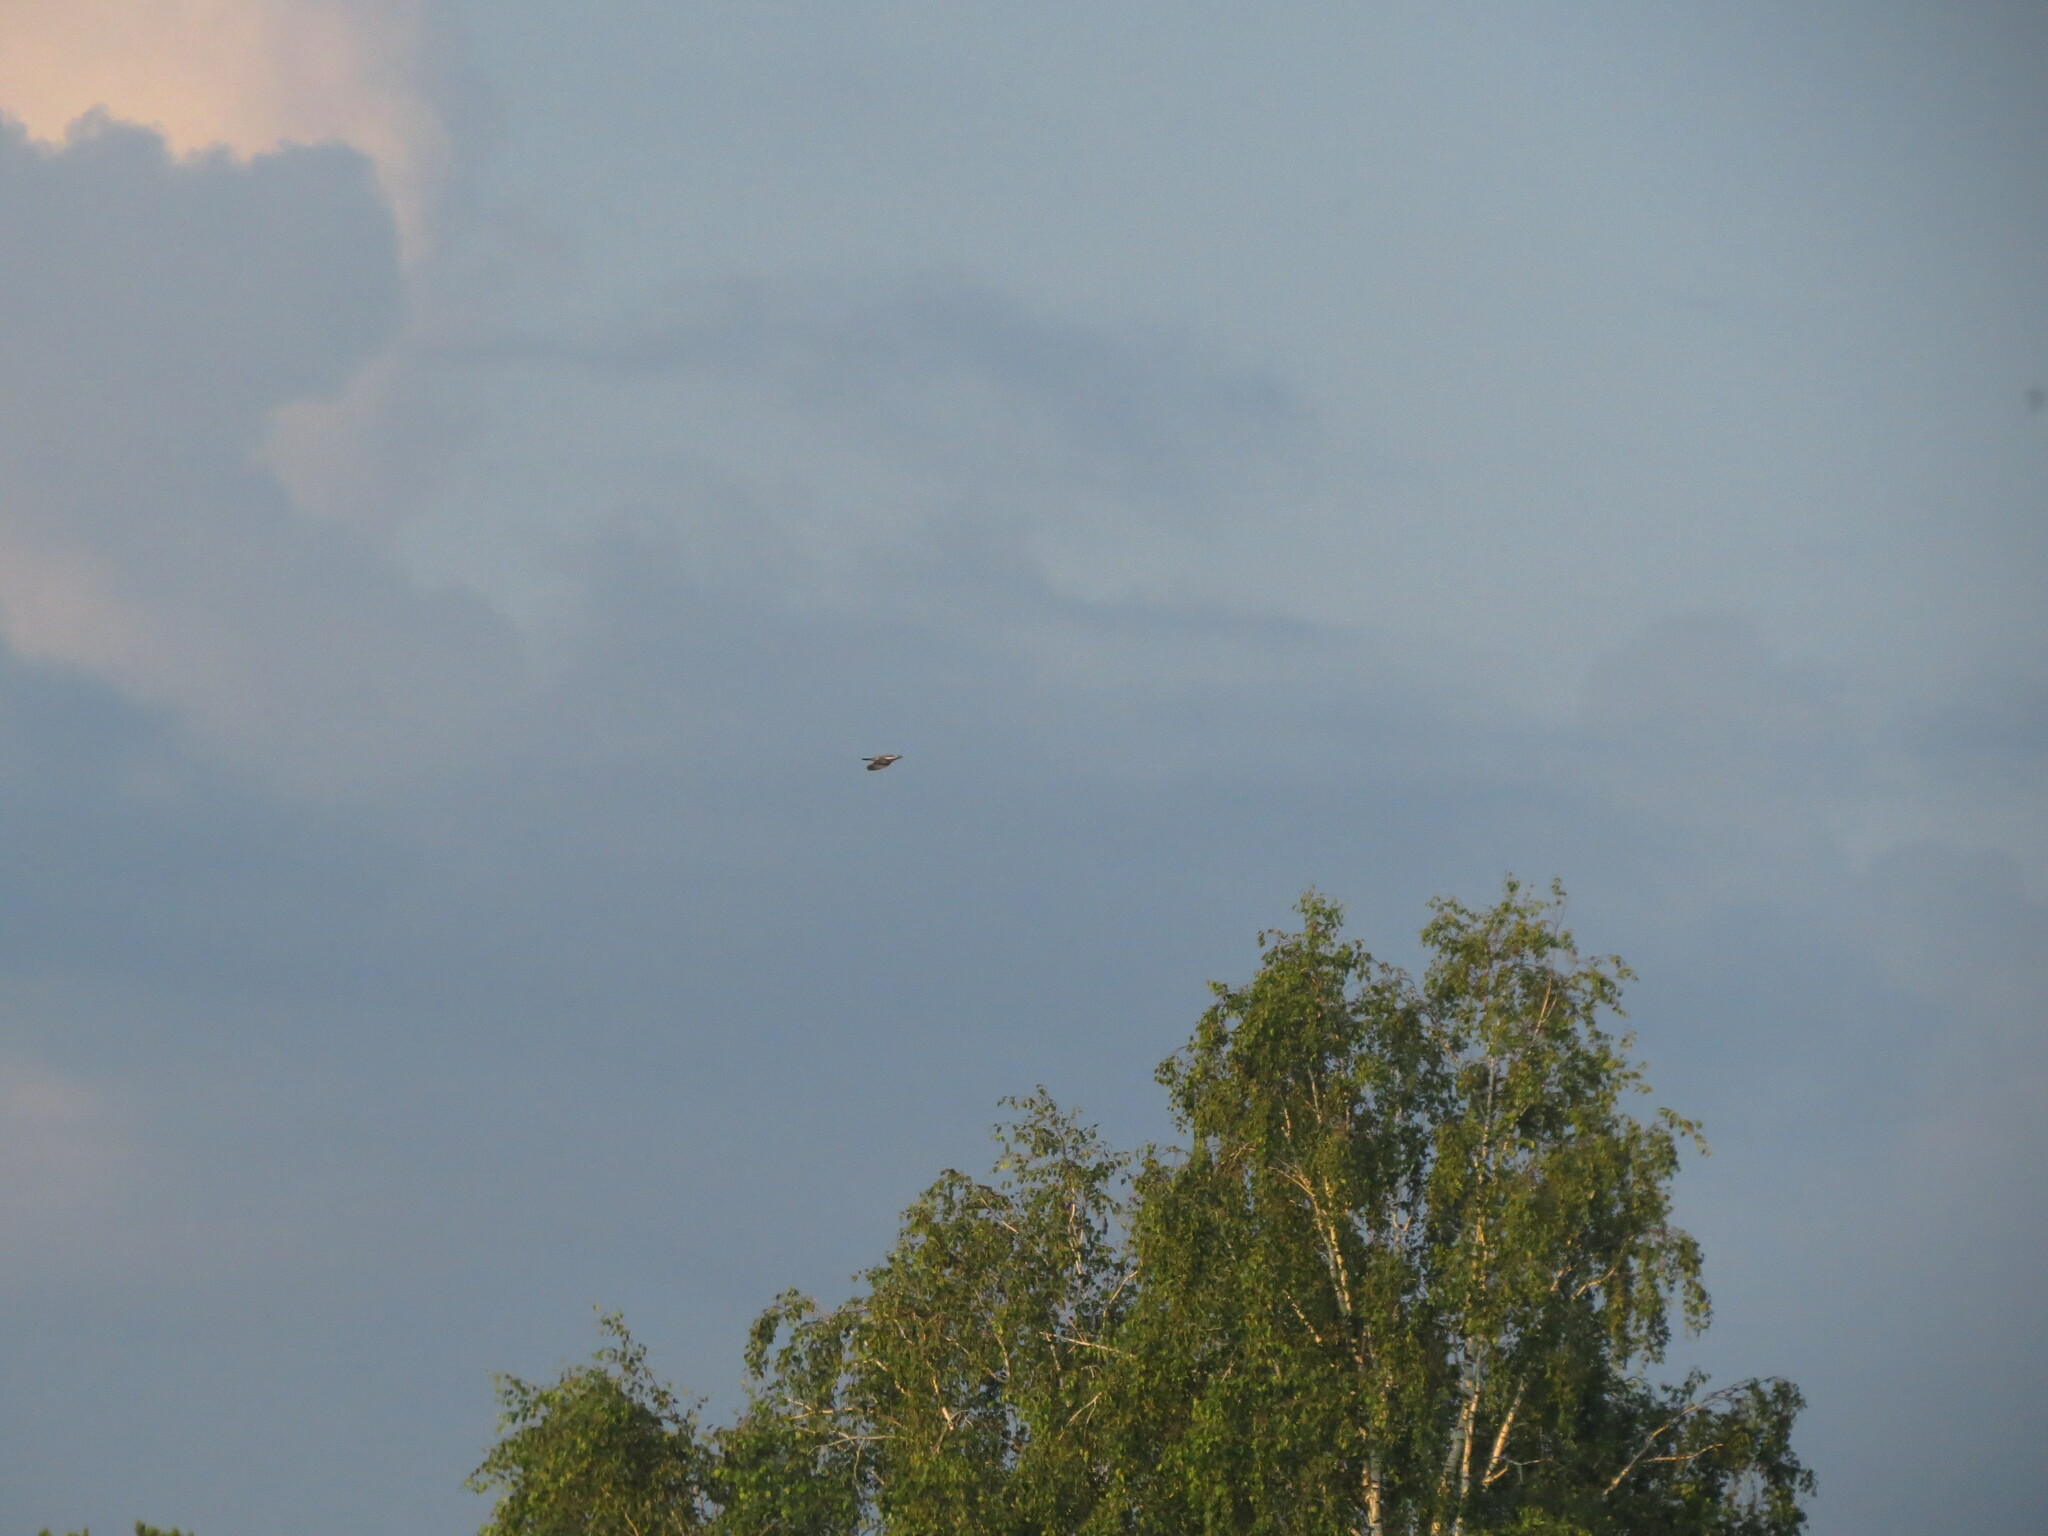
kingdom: Animalia
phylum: Chordata
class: Aves
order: Columbiformes
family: Columbidae
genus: Columba
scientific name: Columba palumbus
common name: Common wood pigeon
